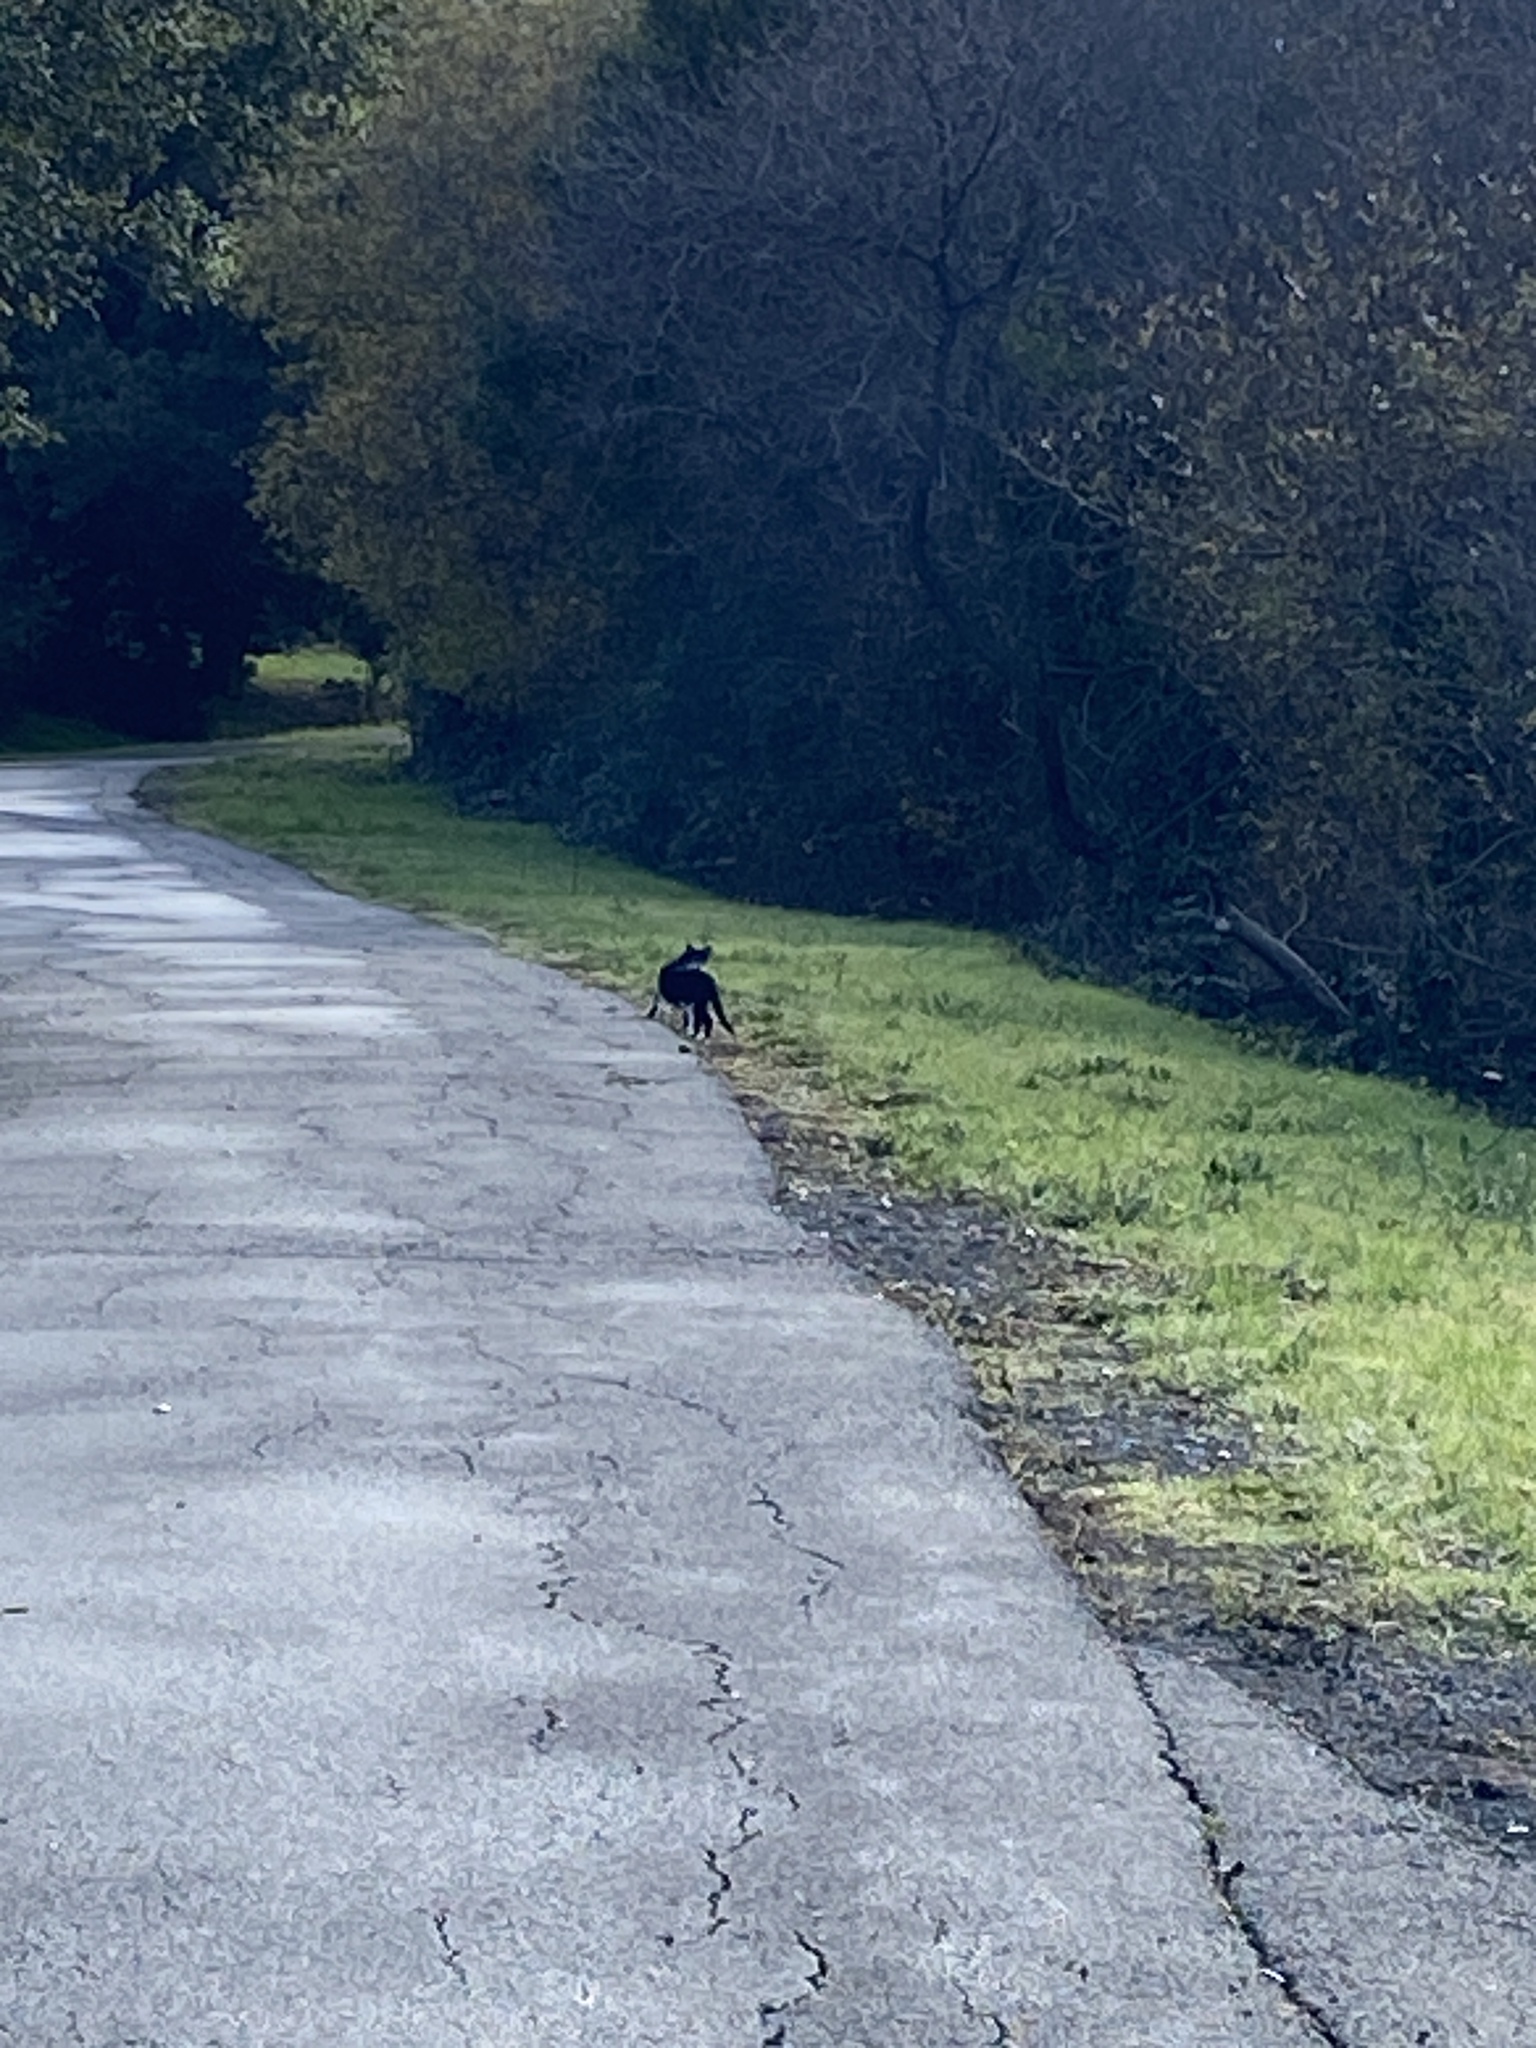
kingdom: Animalia
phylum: Chordata
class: Mammalia
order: Carnivora
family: Felidae
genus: Felis
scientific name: Felis catus
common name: Domestic cat
